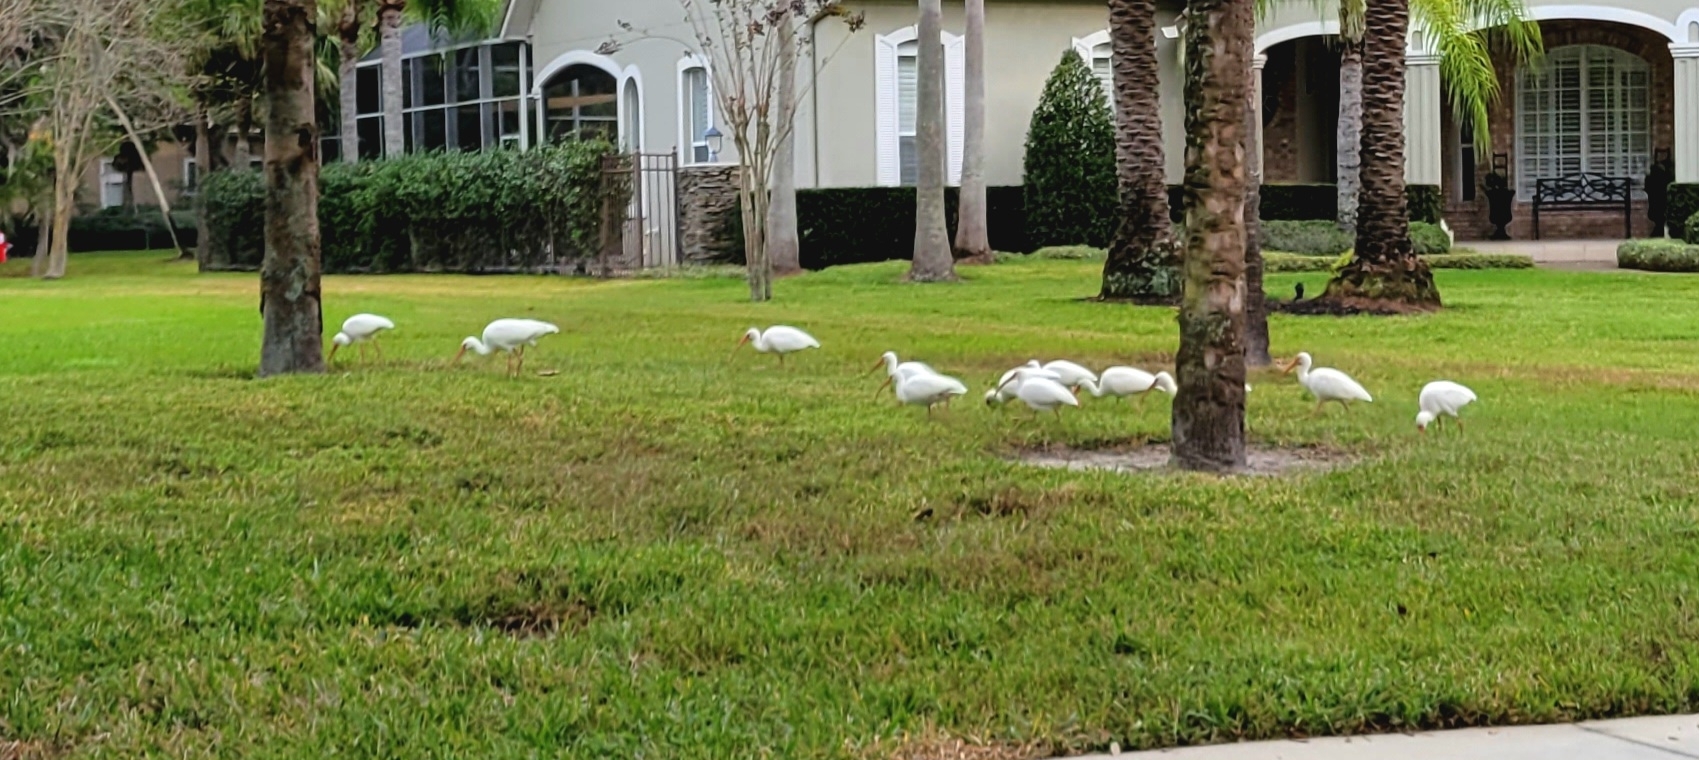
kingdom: Animalia
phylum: Chordata
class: Aves
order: Pelecaniformes
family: Threskiornithidae
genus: Eudocimus
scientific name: Eudocimus albus
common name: White ibis
